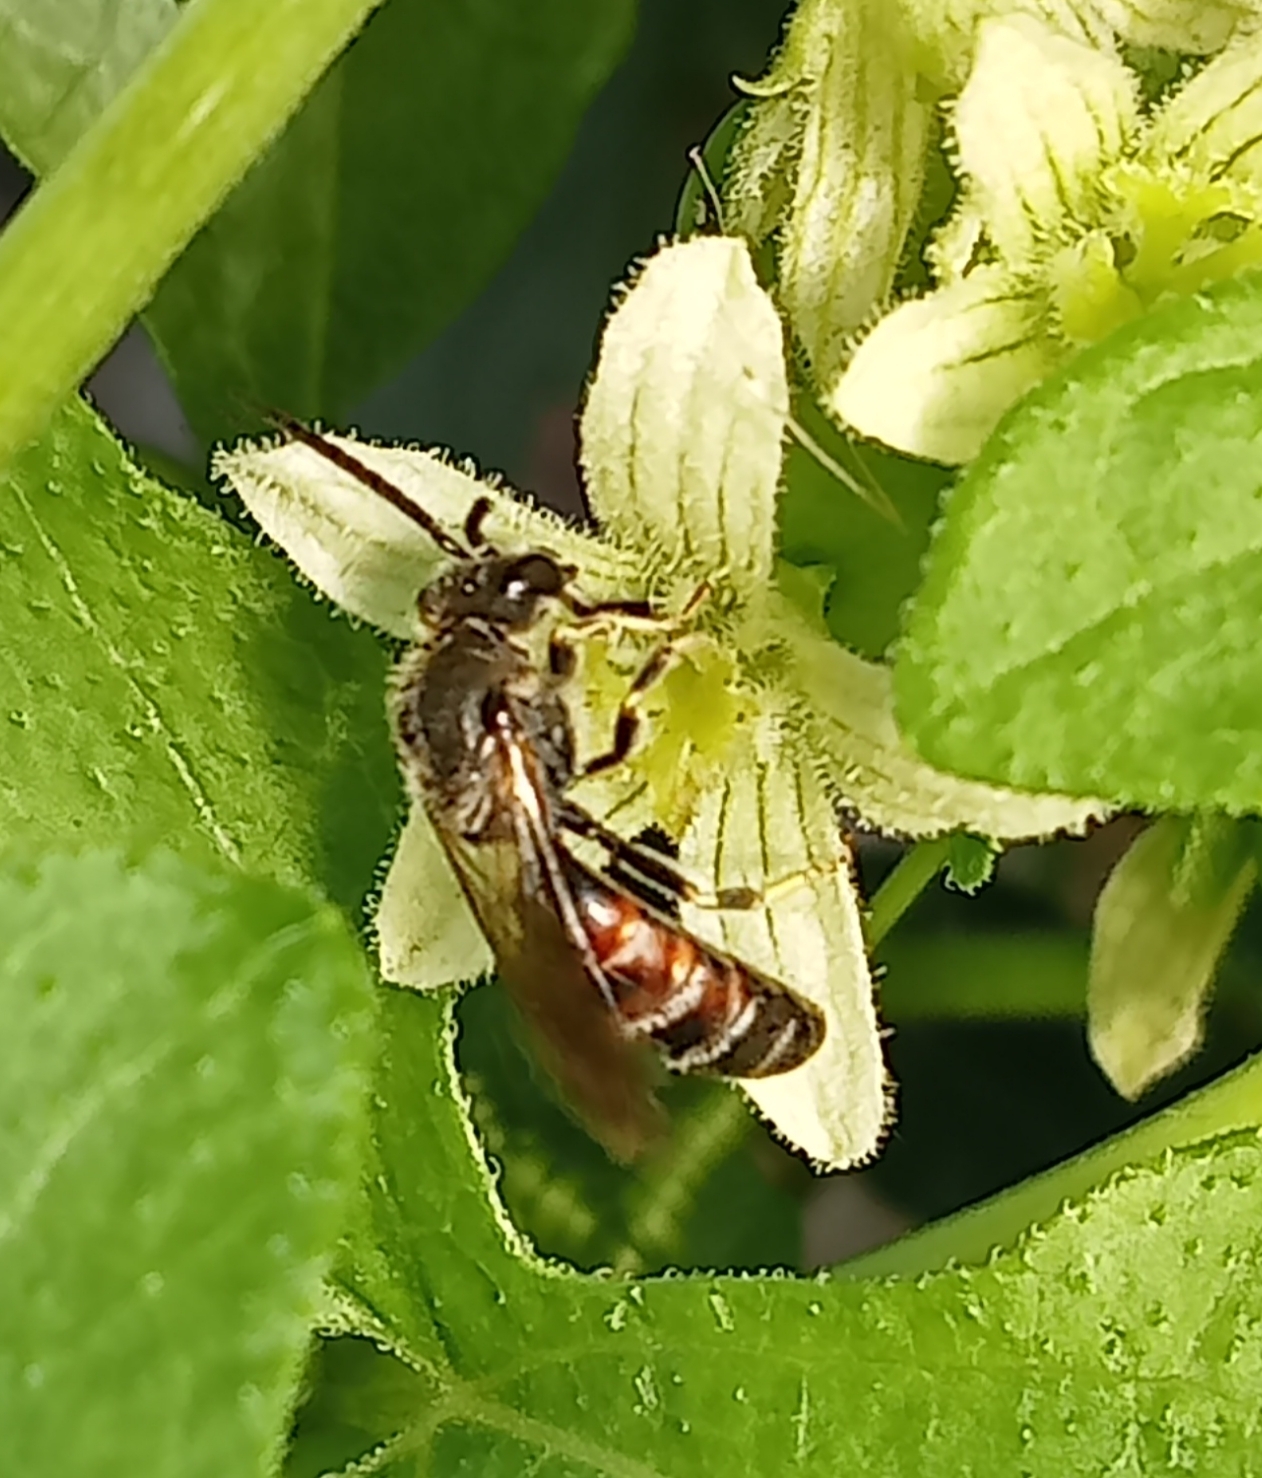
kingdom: Animalia
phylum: Arthropoda
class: Insecta
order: Hymenoptera
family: Halictidae
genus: Lasioglossum
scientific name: Lasioglossum calceatum
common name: Common furrow bee
